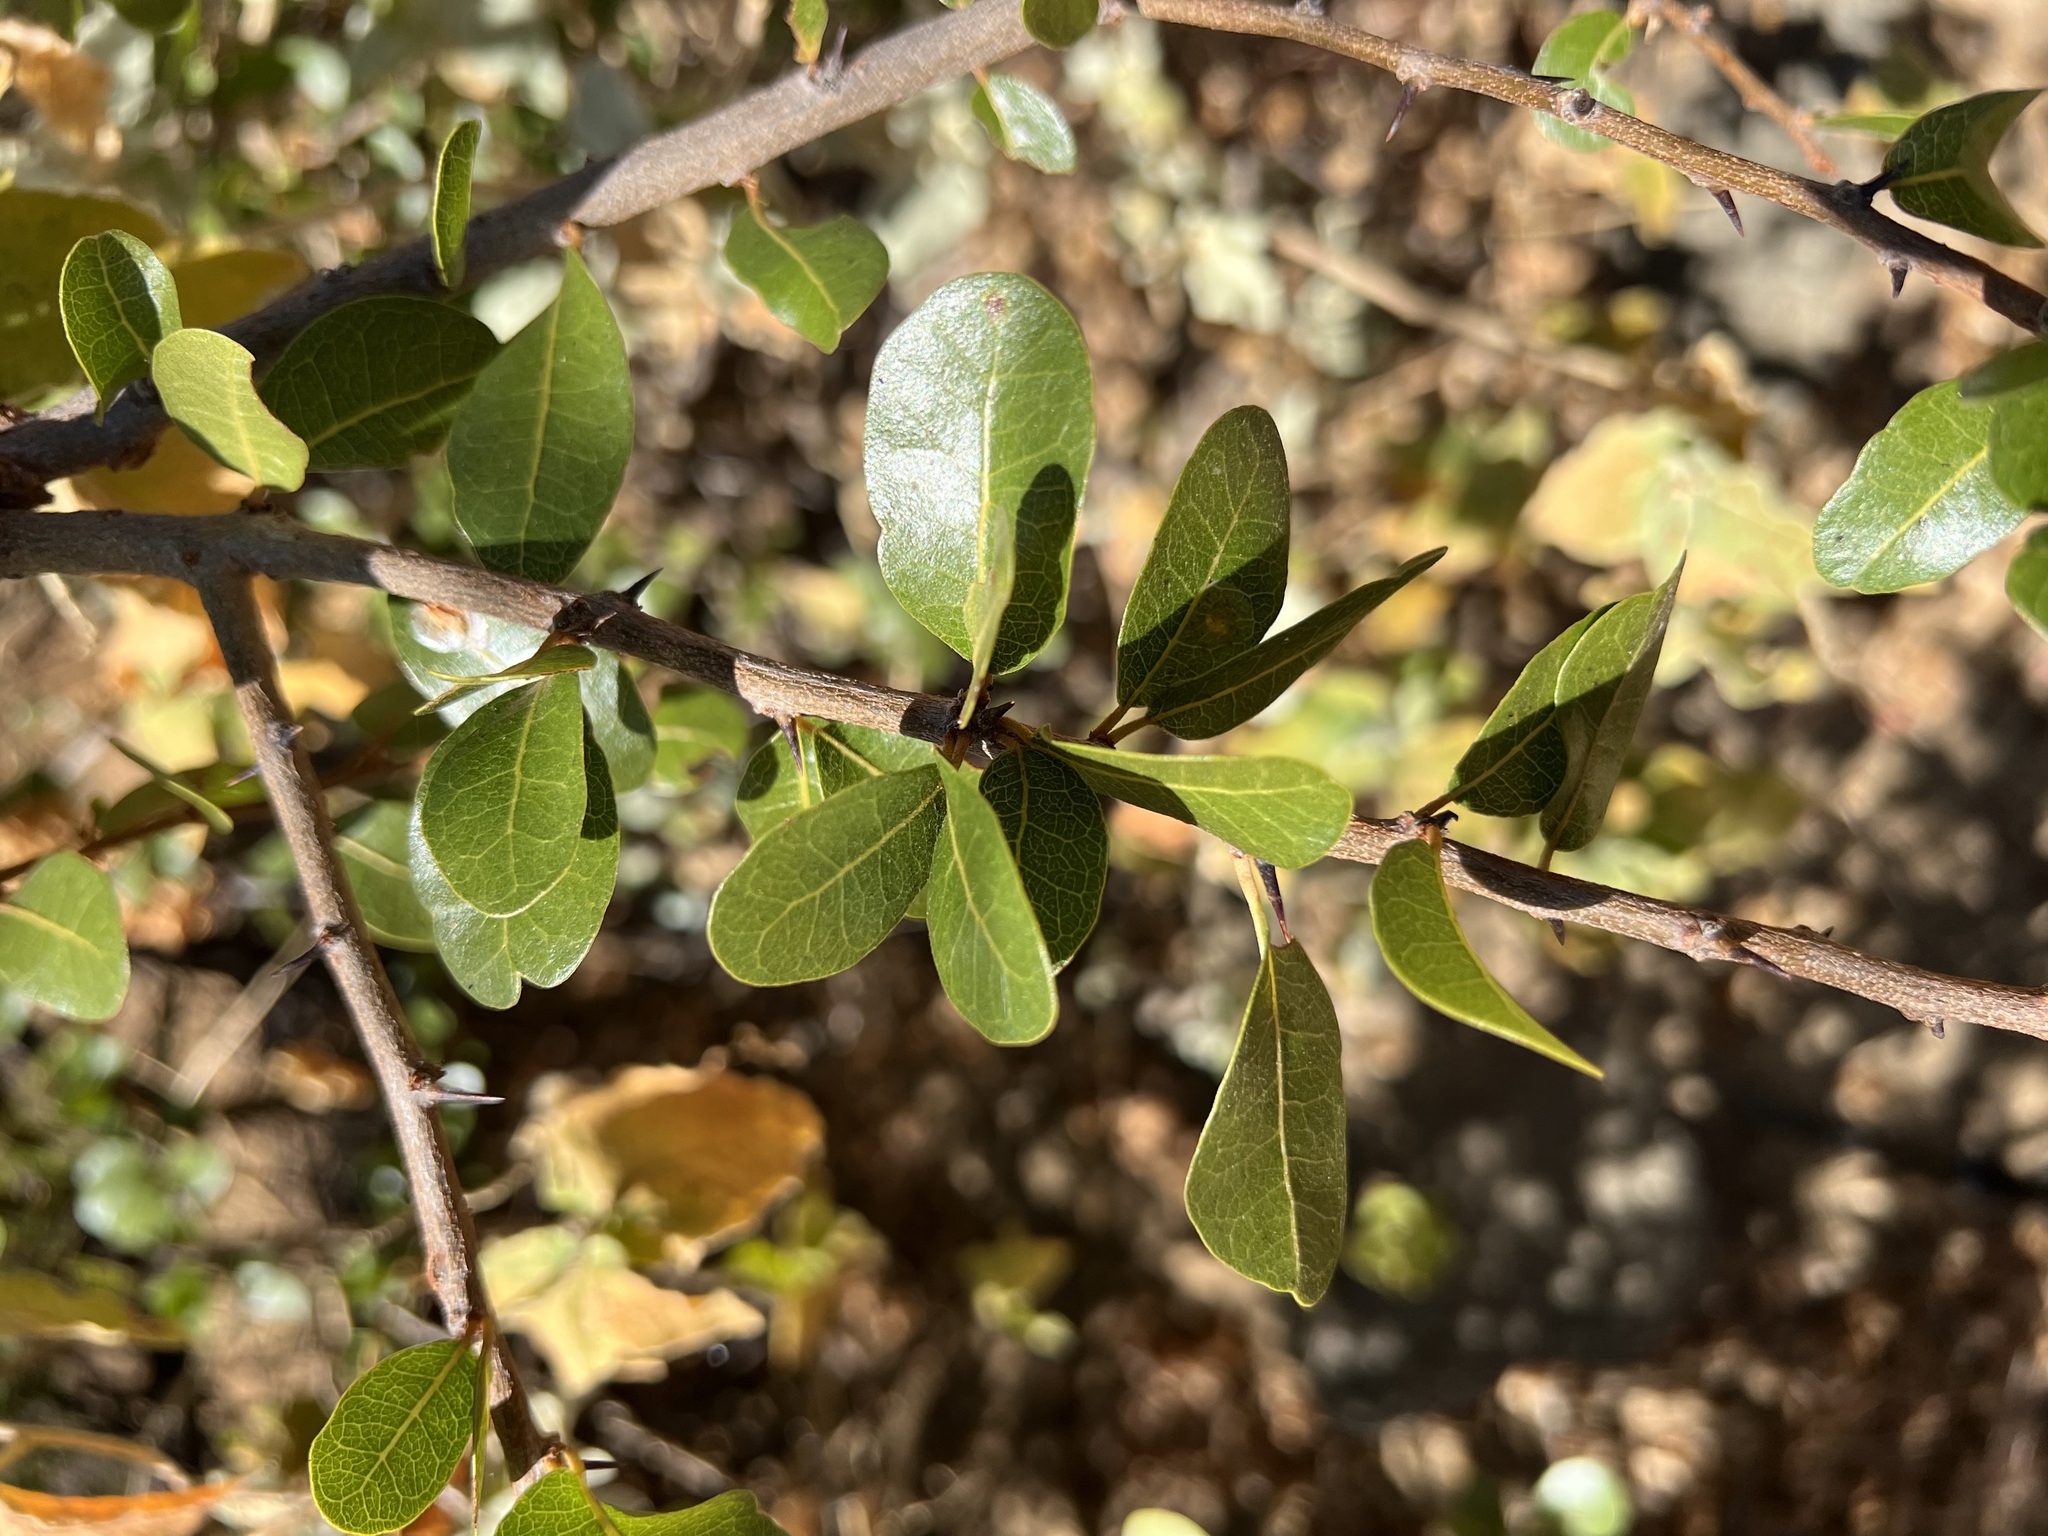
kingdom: Plantae
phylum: Tracheophyta
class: Magnoliopsida
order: Ericales
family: Sapotaceae
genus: Sideroxylon
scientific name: Sideroxylon peninsulare
